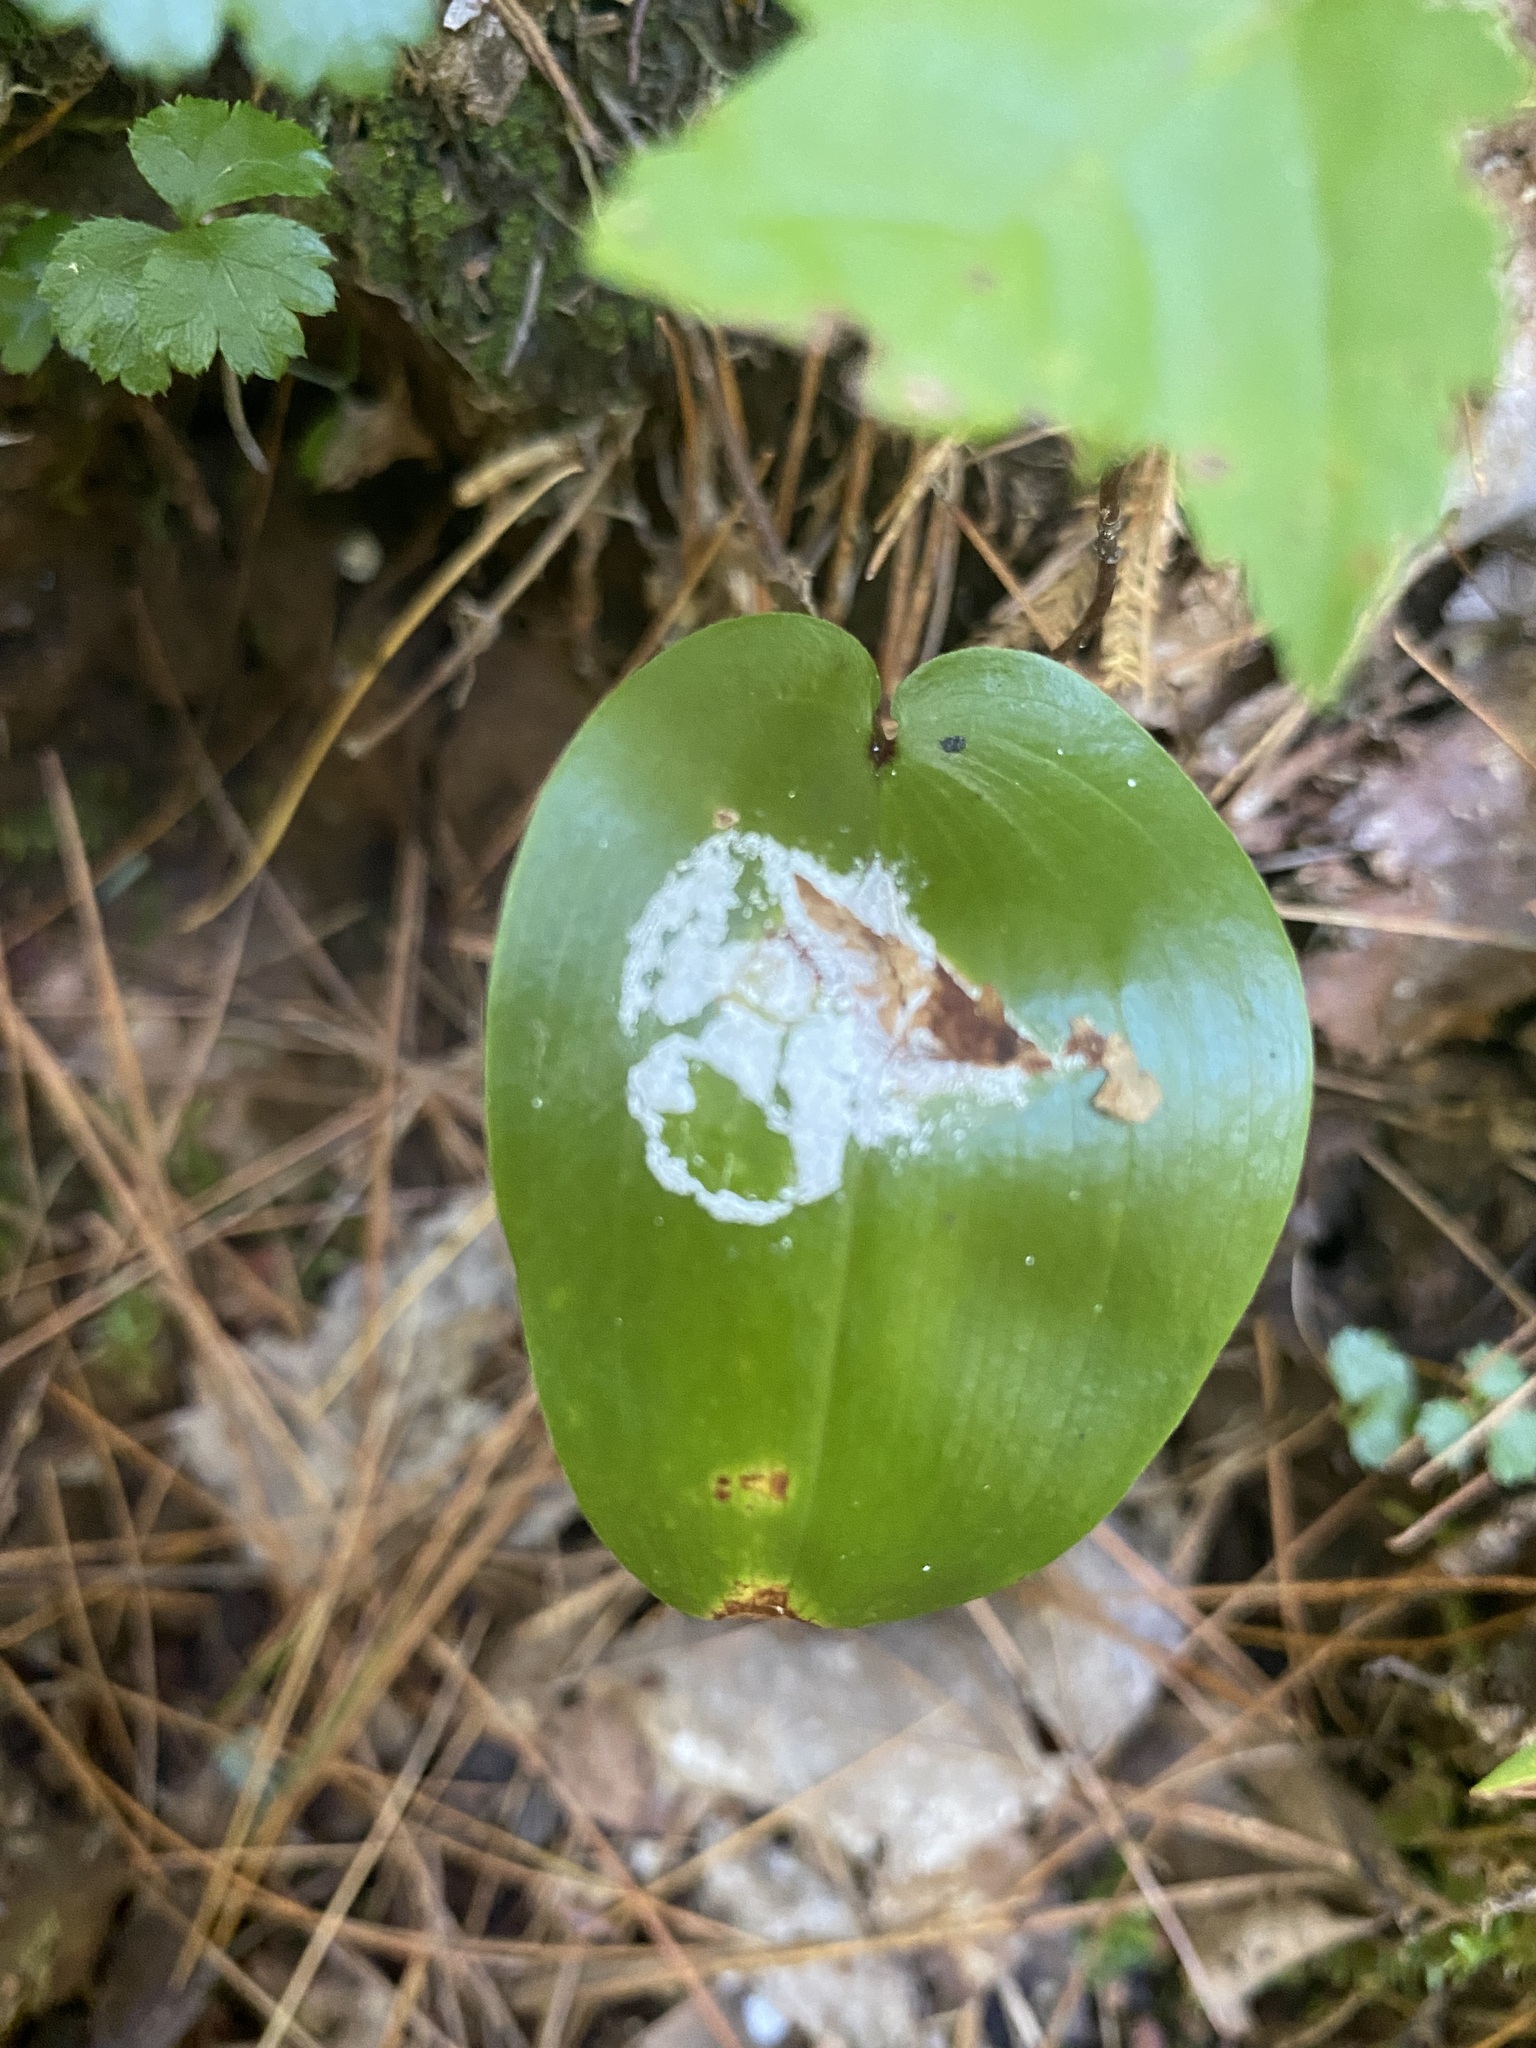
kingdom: Plantae
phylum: Tracheophyta
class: Liliopsida
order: Asparagales
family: Asparagaceae
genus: Maianthemum
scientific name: Maianthemum canadense
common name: False lily-of-the-valley
